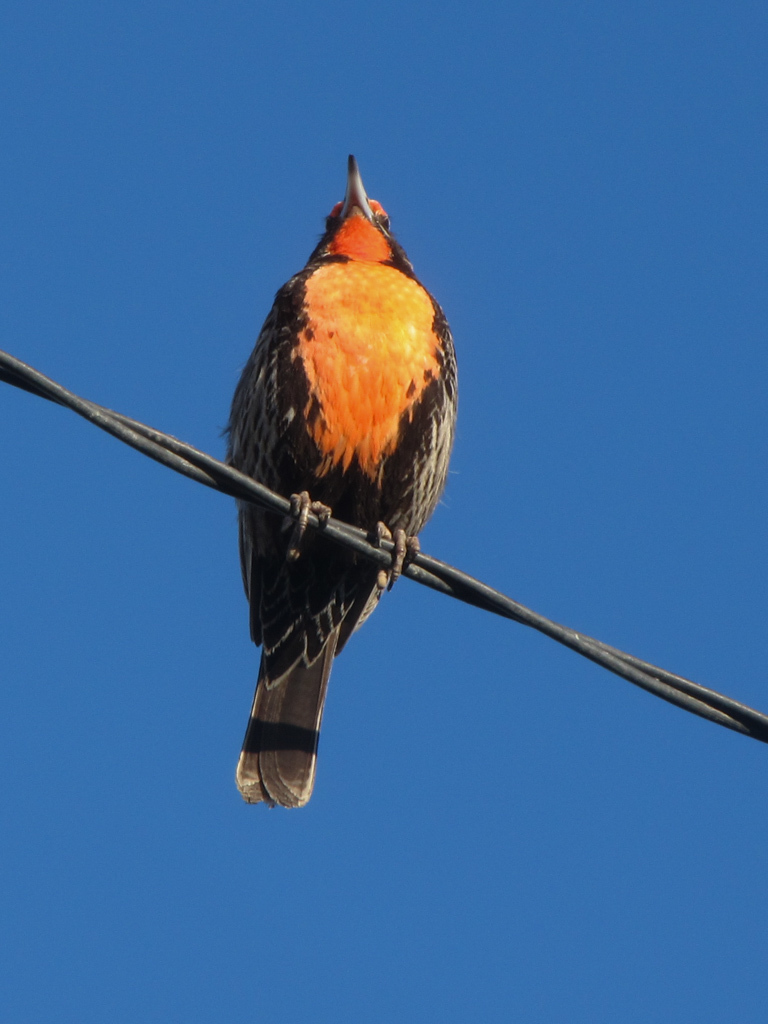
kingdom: Animalia
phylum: Chordata
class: Aves
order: Passeriformes
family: Icteridae
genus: Sturnella
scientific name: Sturnella loyca
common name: Long-tailed meadowlark
